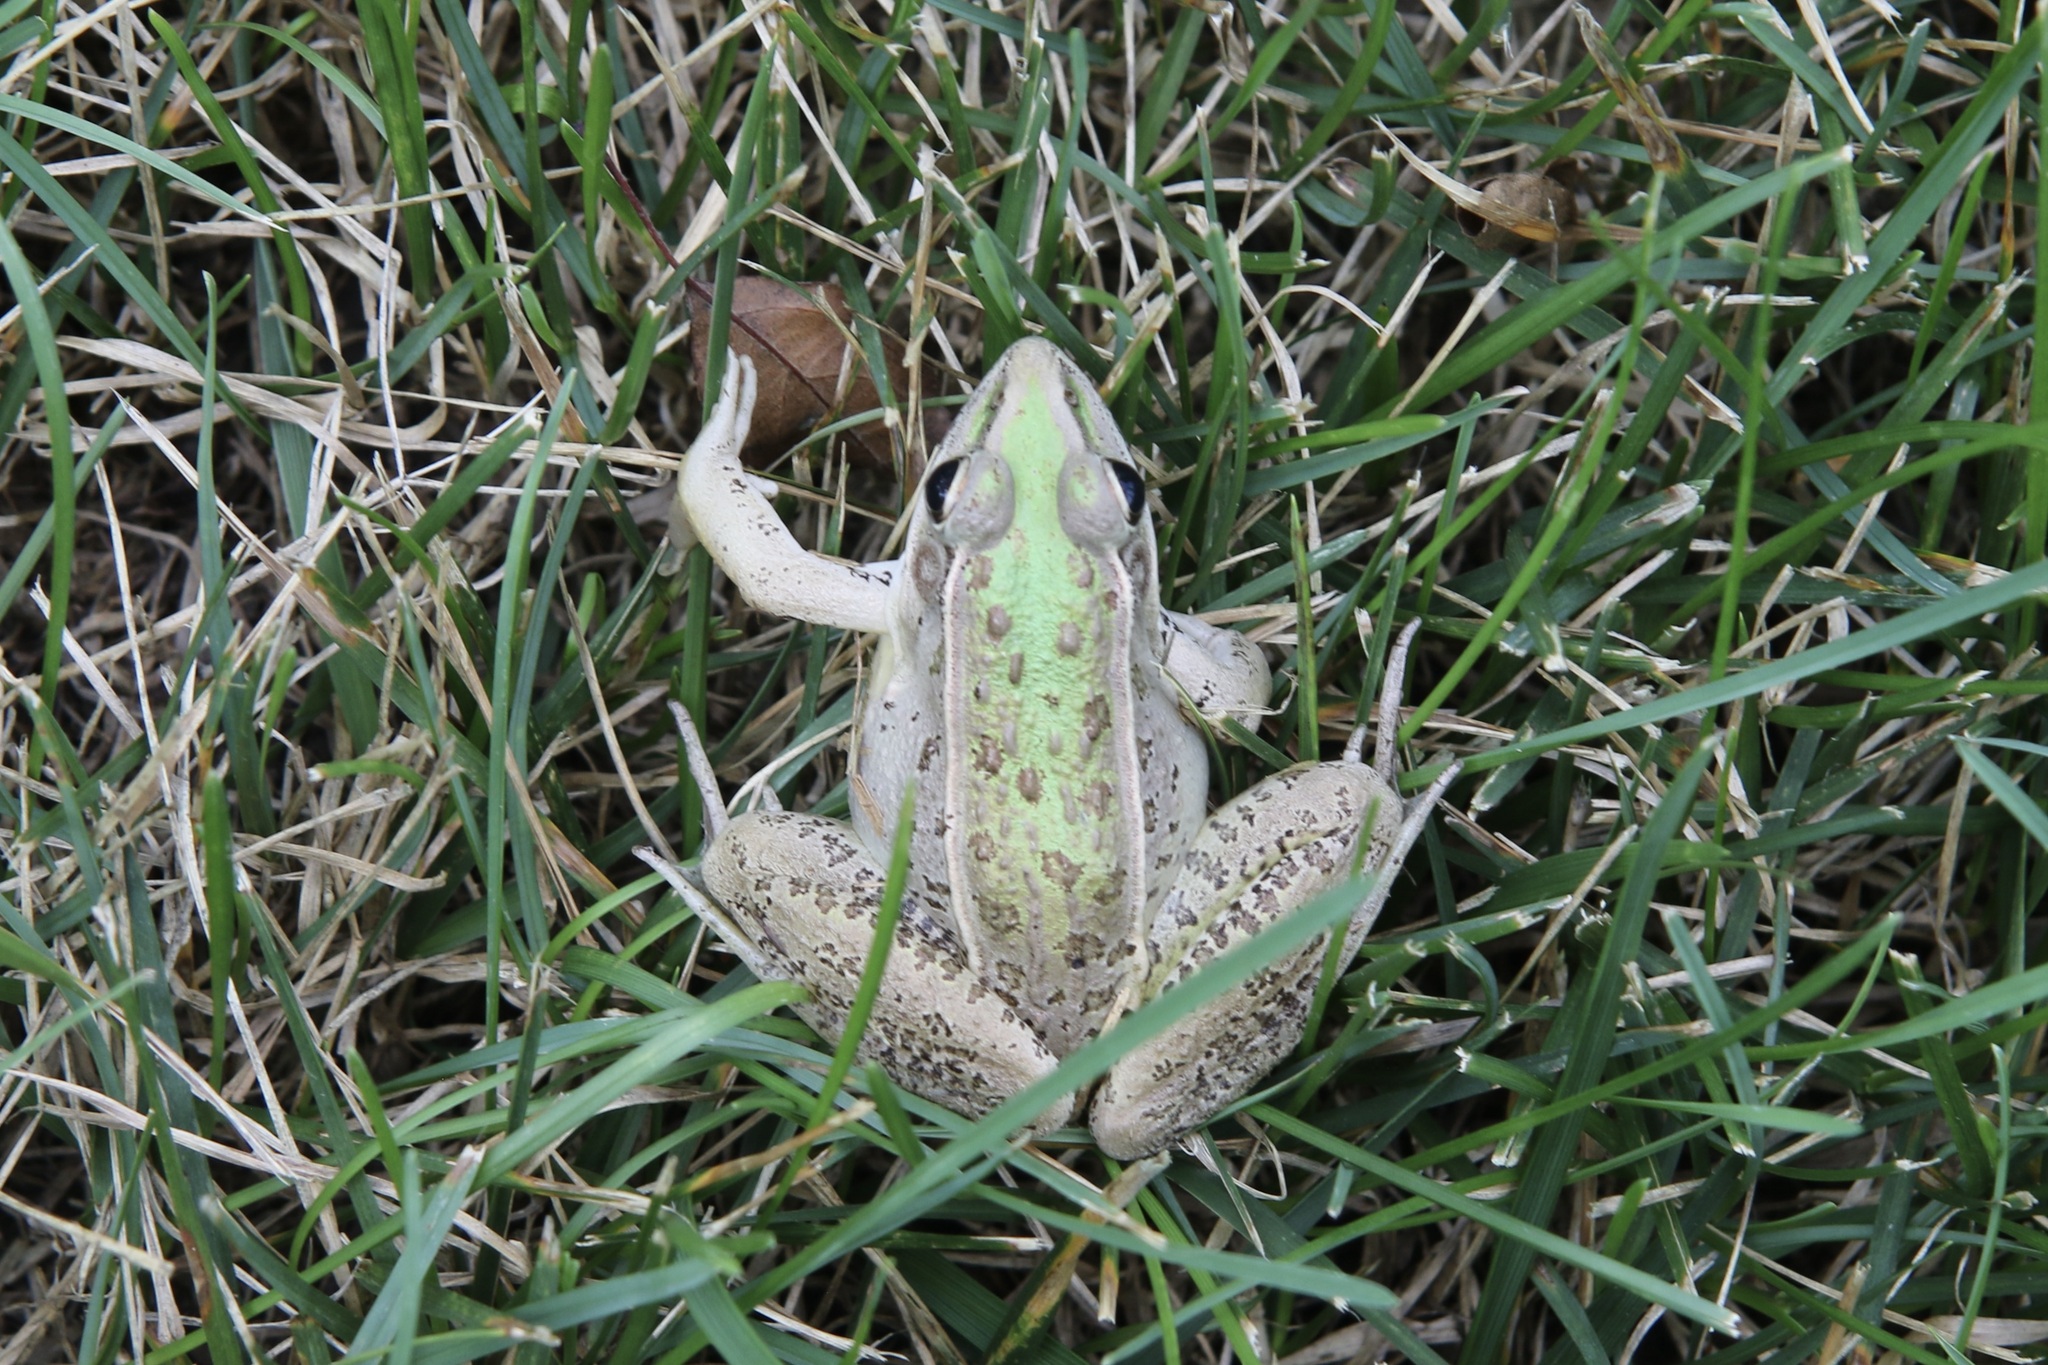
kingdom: Animalia
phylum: Chordata
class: Amphibia
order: Anura
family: Ranidae
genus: Lithobates
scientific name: Lithobates sphenocephalus
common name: Southern leopard frog
